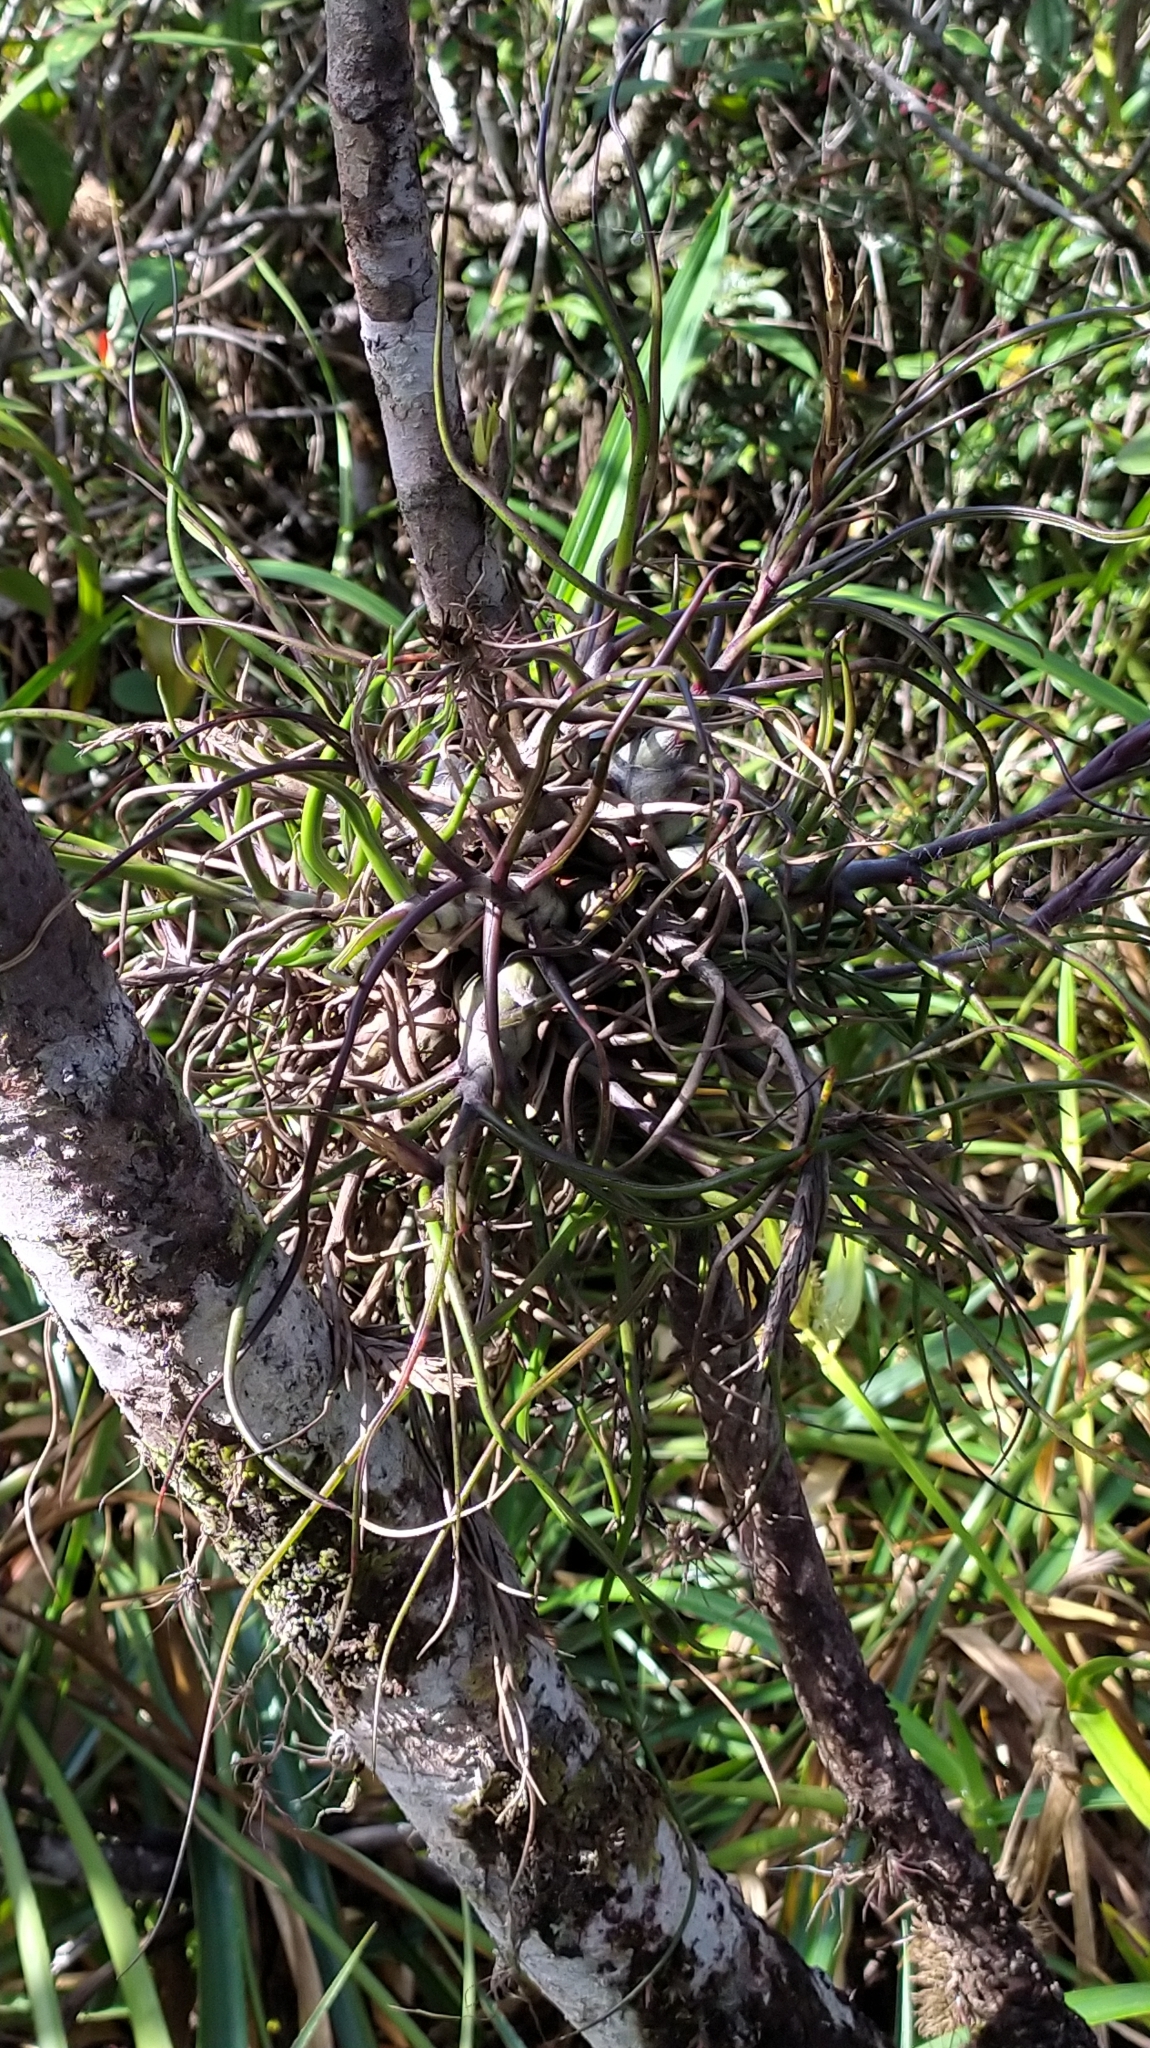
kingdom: Plantae
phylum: Tracheophyta
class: Liliopsida
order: Poales
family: Bromeliaceae
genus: Tillandsia
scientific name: Tillandsia bulbosa
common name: Bulbous airplant
